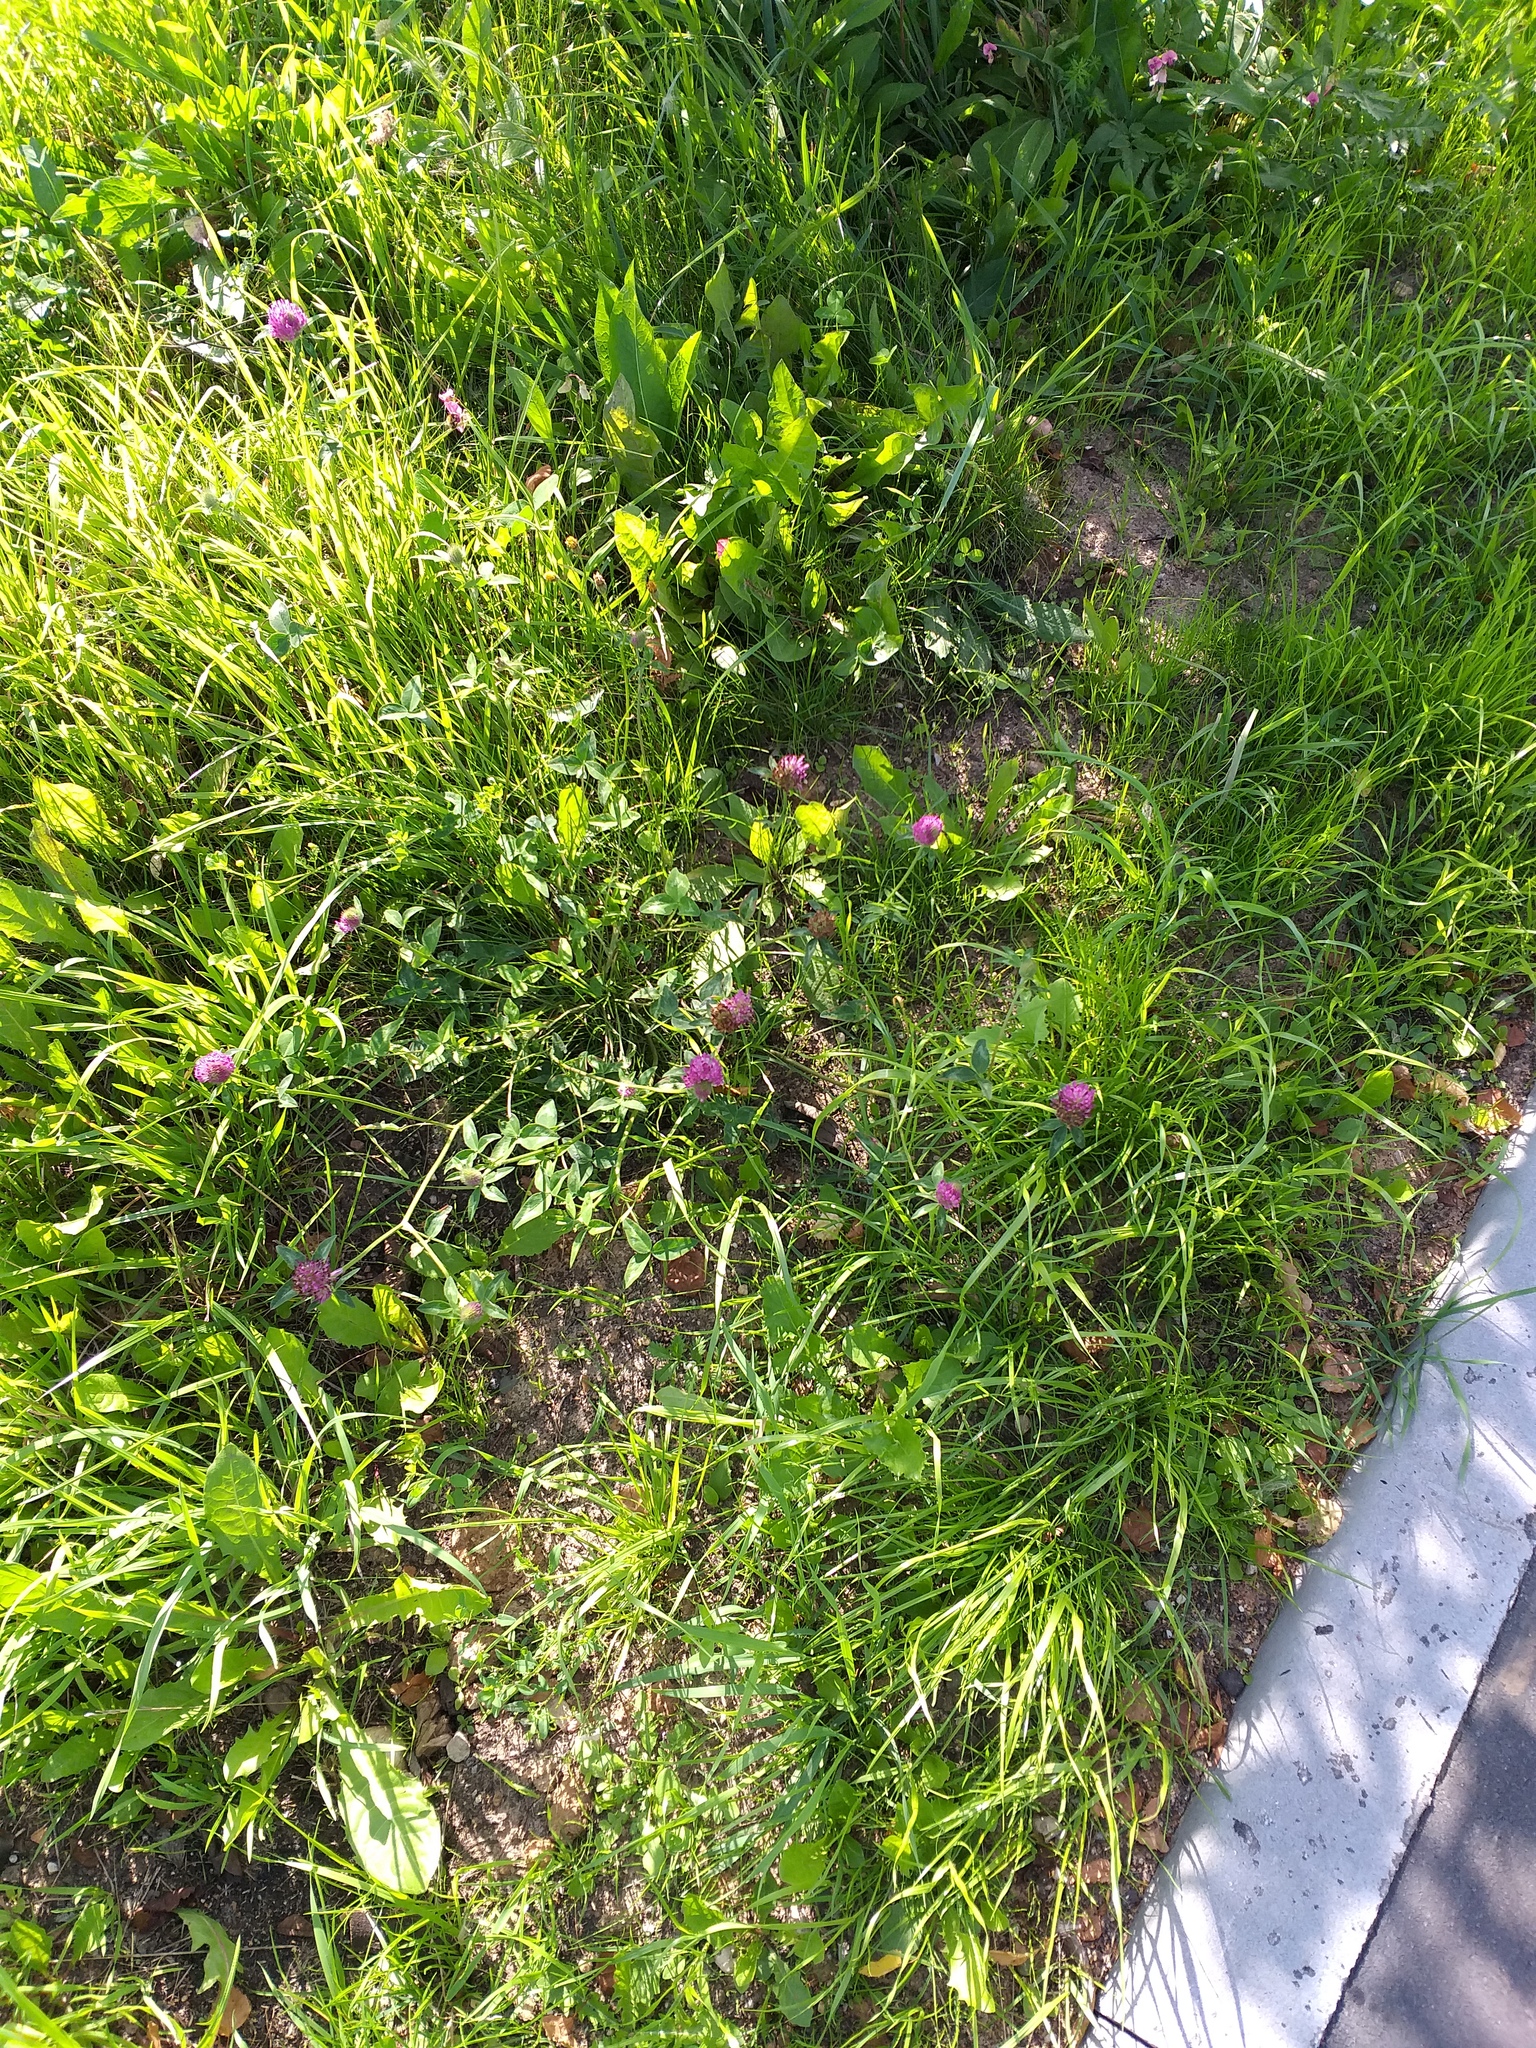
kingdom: Plantae
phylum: Tracheophyta
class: Magnoliopsida
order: Fabales
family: Fabaceae
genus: Trifolium
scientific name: Trifolium pratense
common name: Red clover
